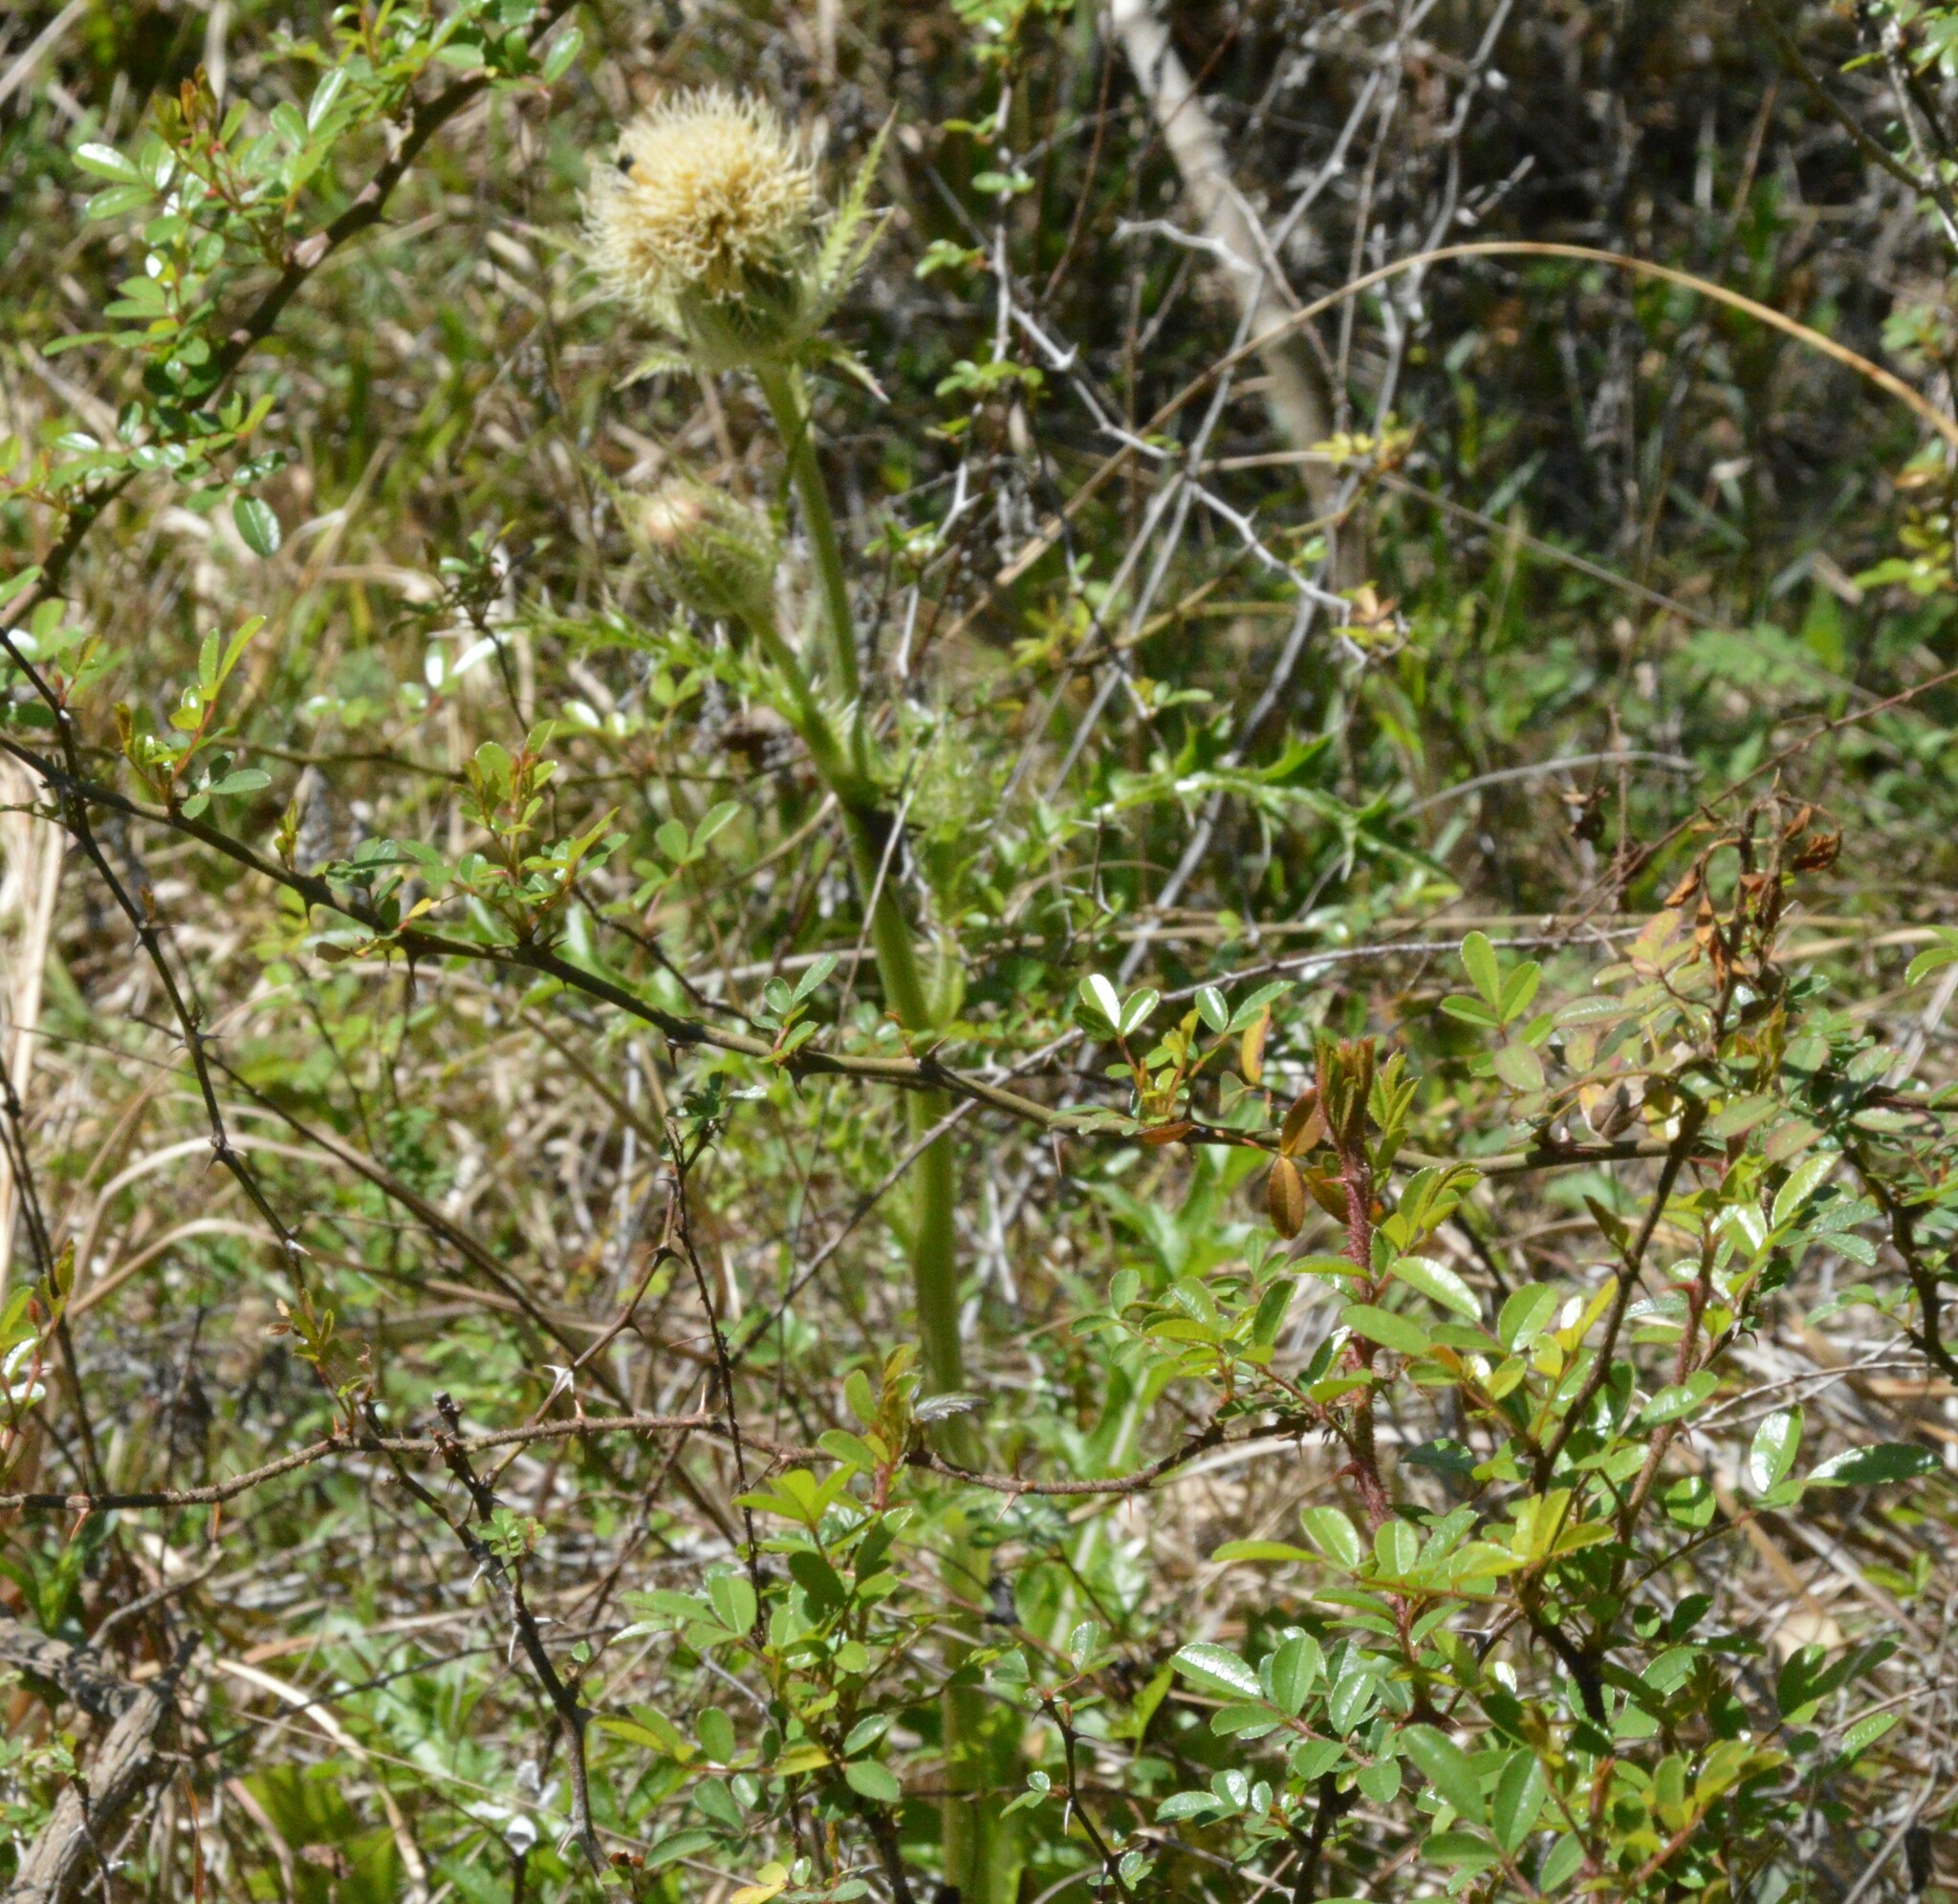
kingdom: Plantae
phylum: Tracheophyta
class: Magnoliopsida
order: Asterales
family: Asteraceae
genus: Cirsium
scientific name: Cirsium horridulum
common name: Bristly thistle
